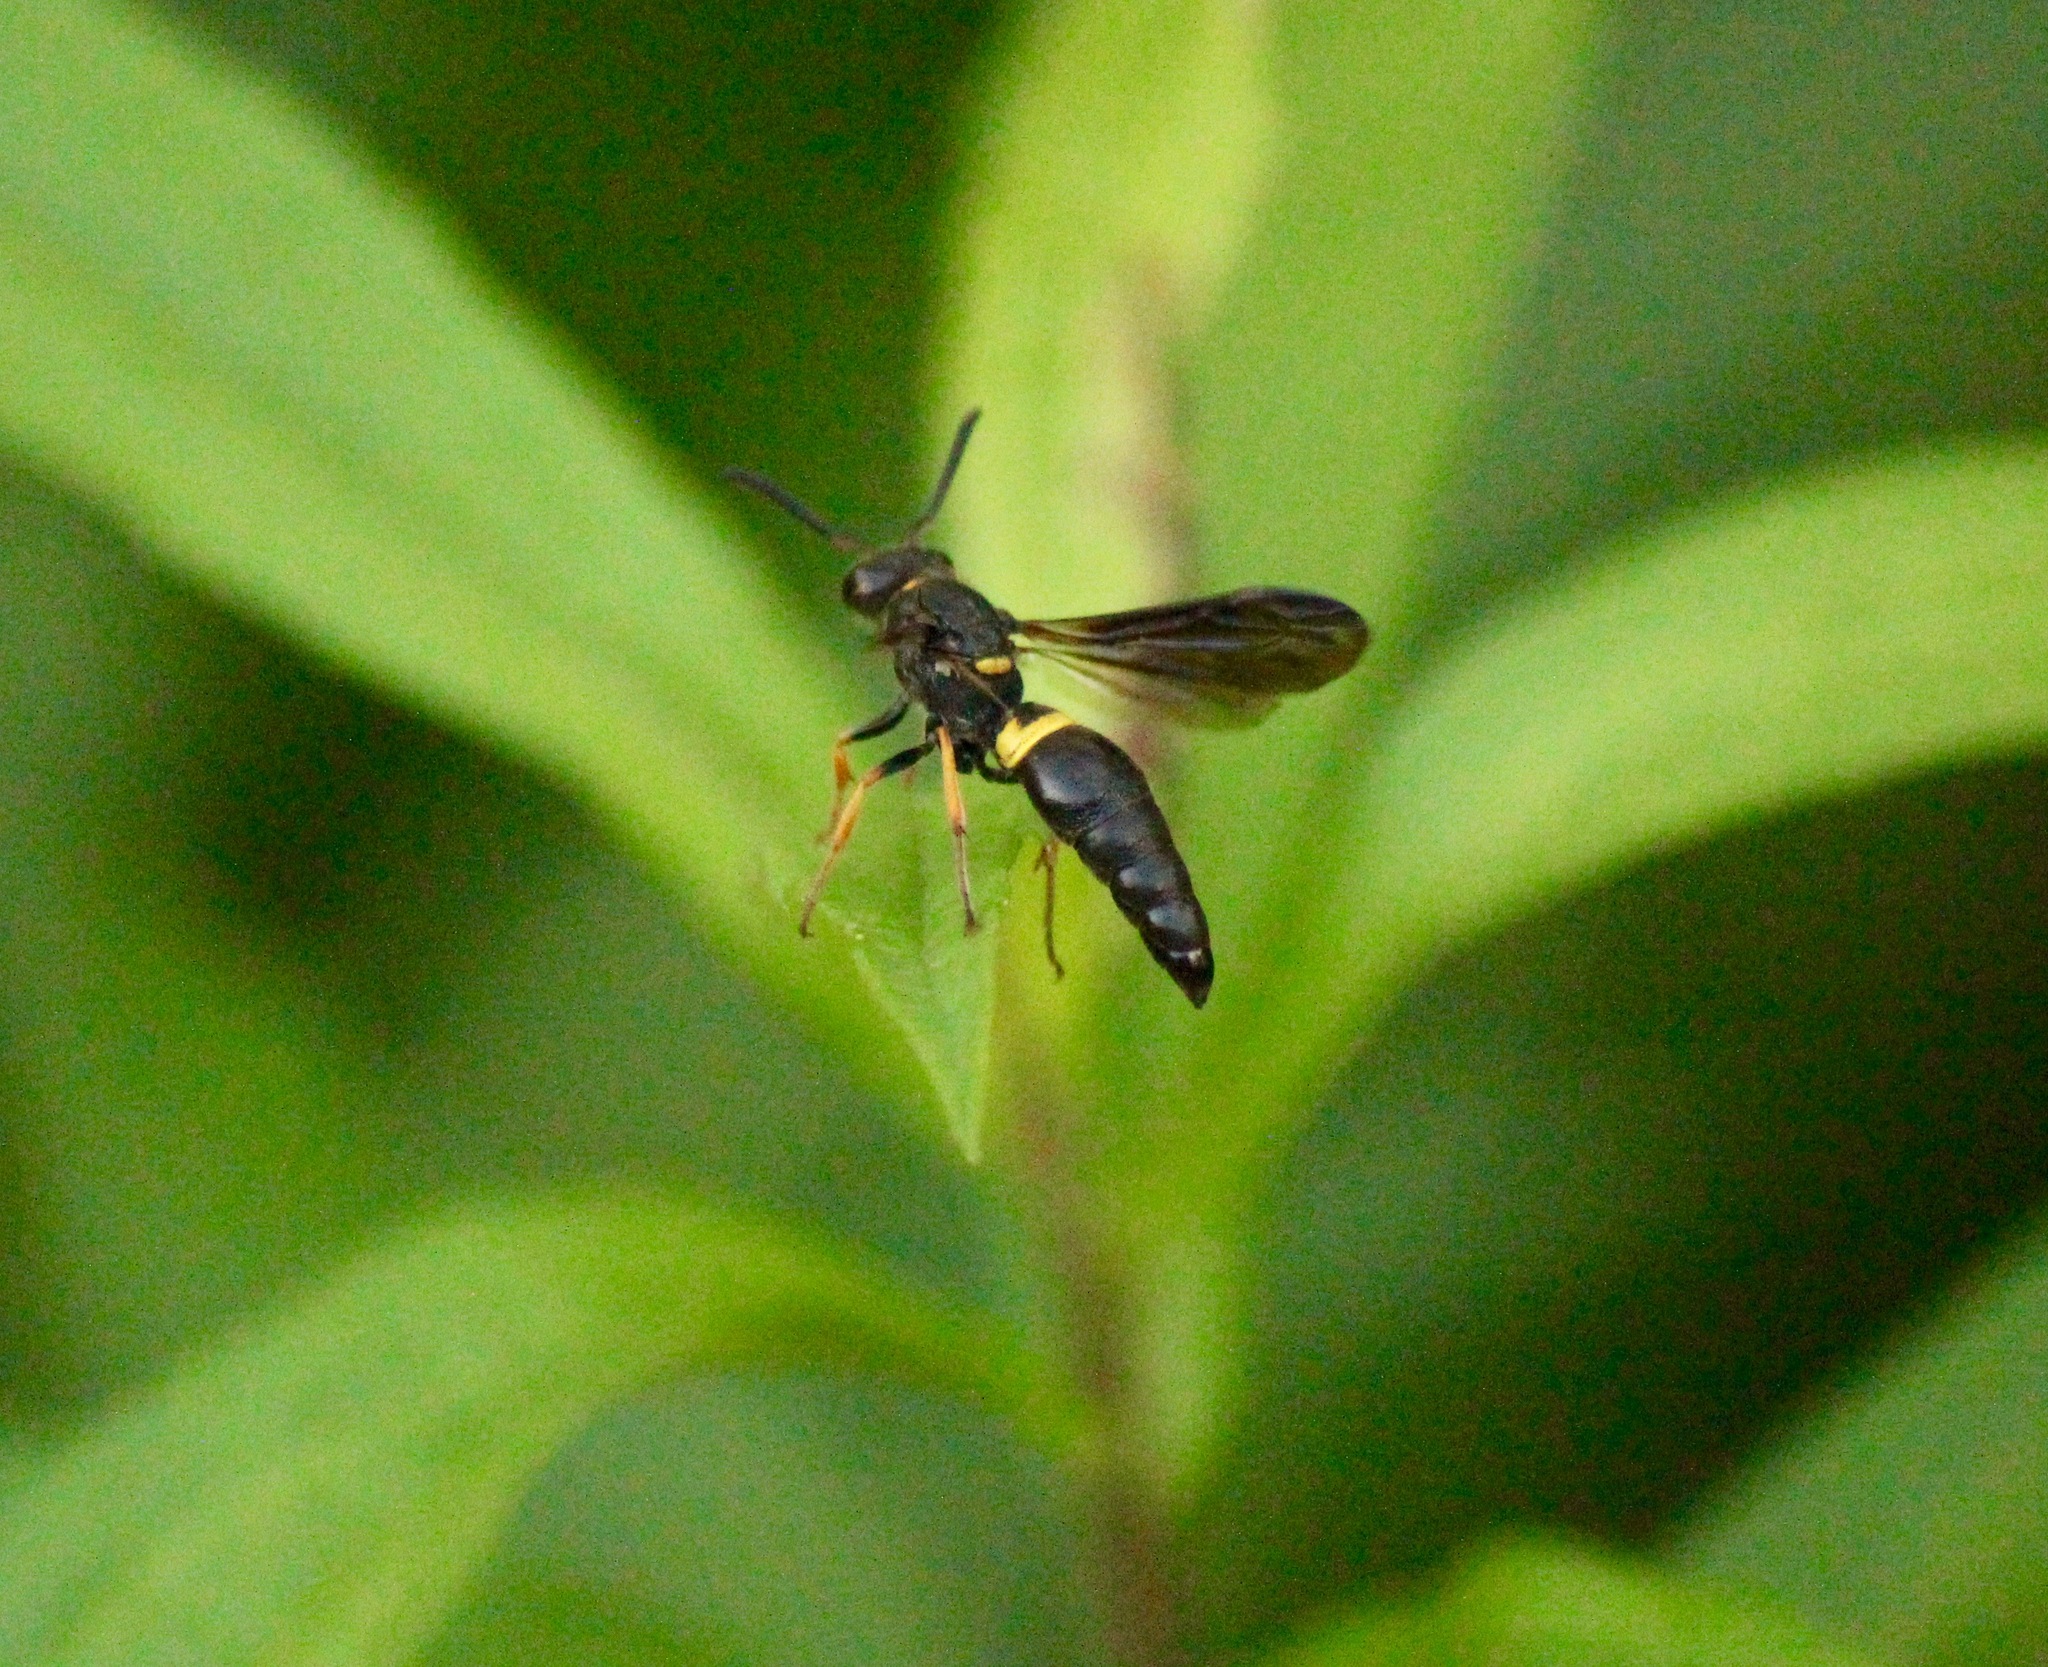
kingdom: Animalia
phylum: Arthropoda
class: Insecta
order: Hymenoptera
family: Vespidae
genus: Ancistrocerus
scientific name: Ancistrocerus unifasciatus
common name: One-banded mason wasp
